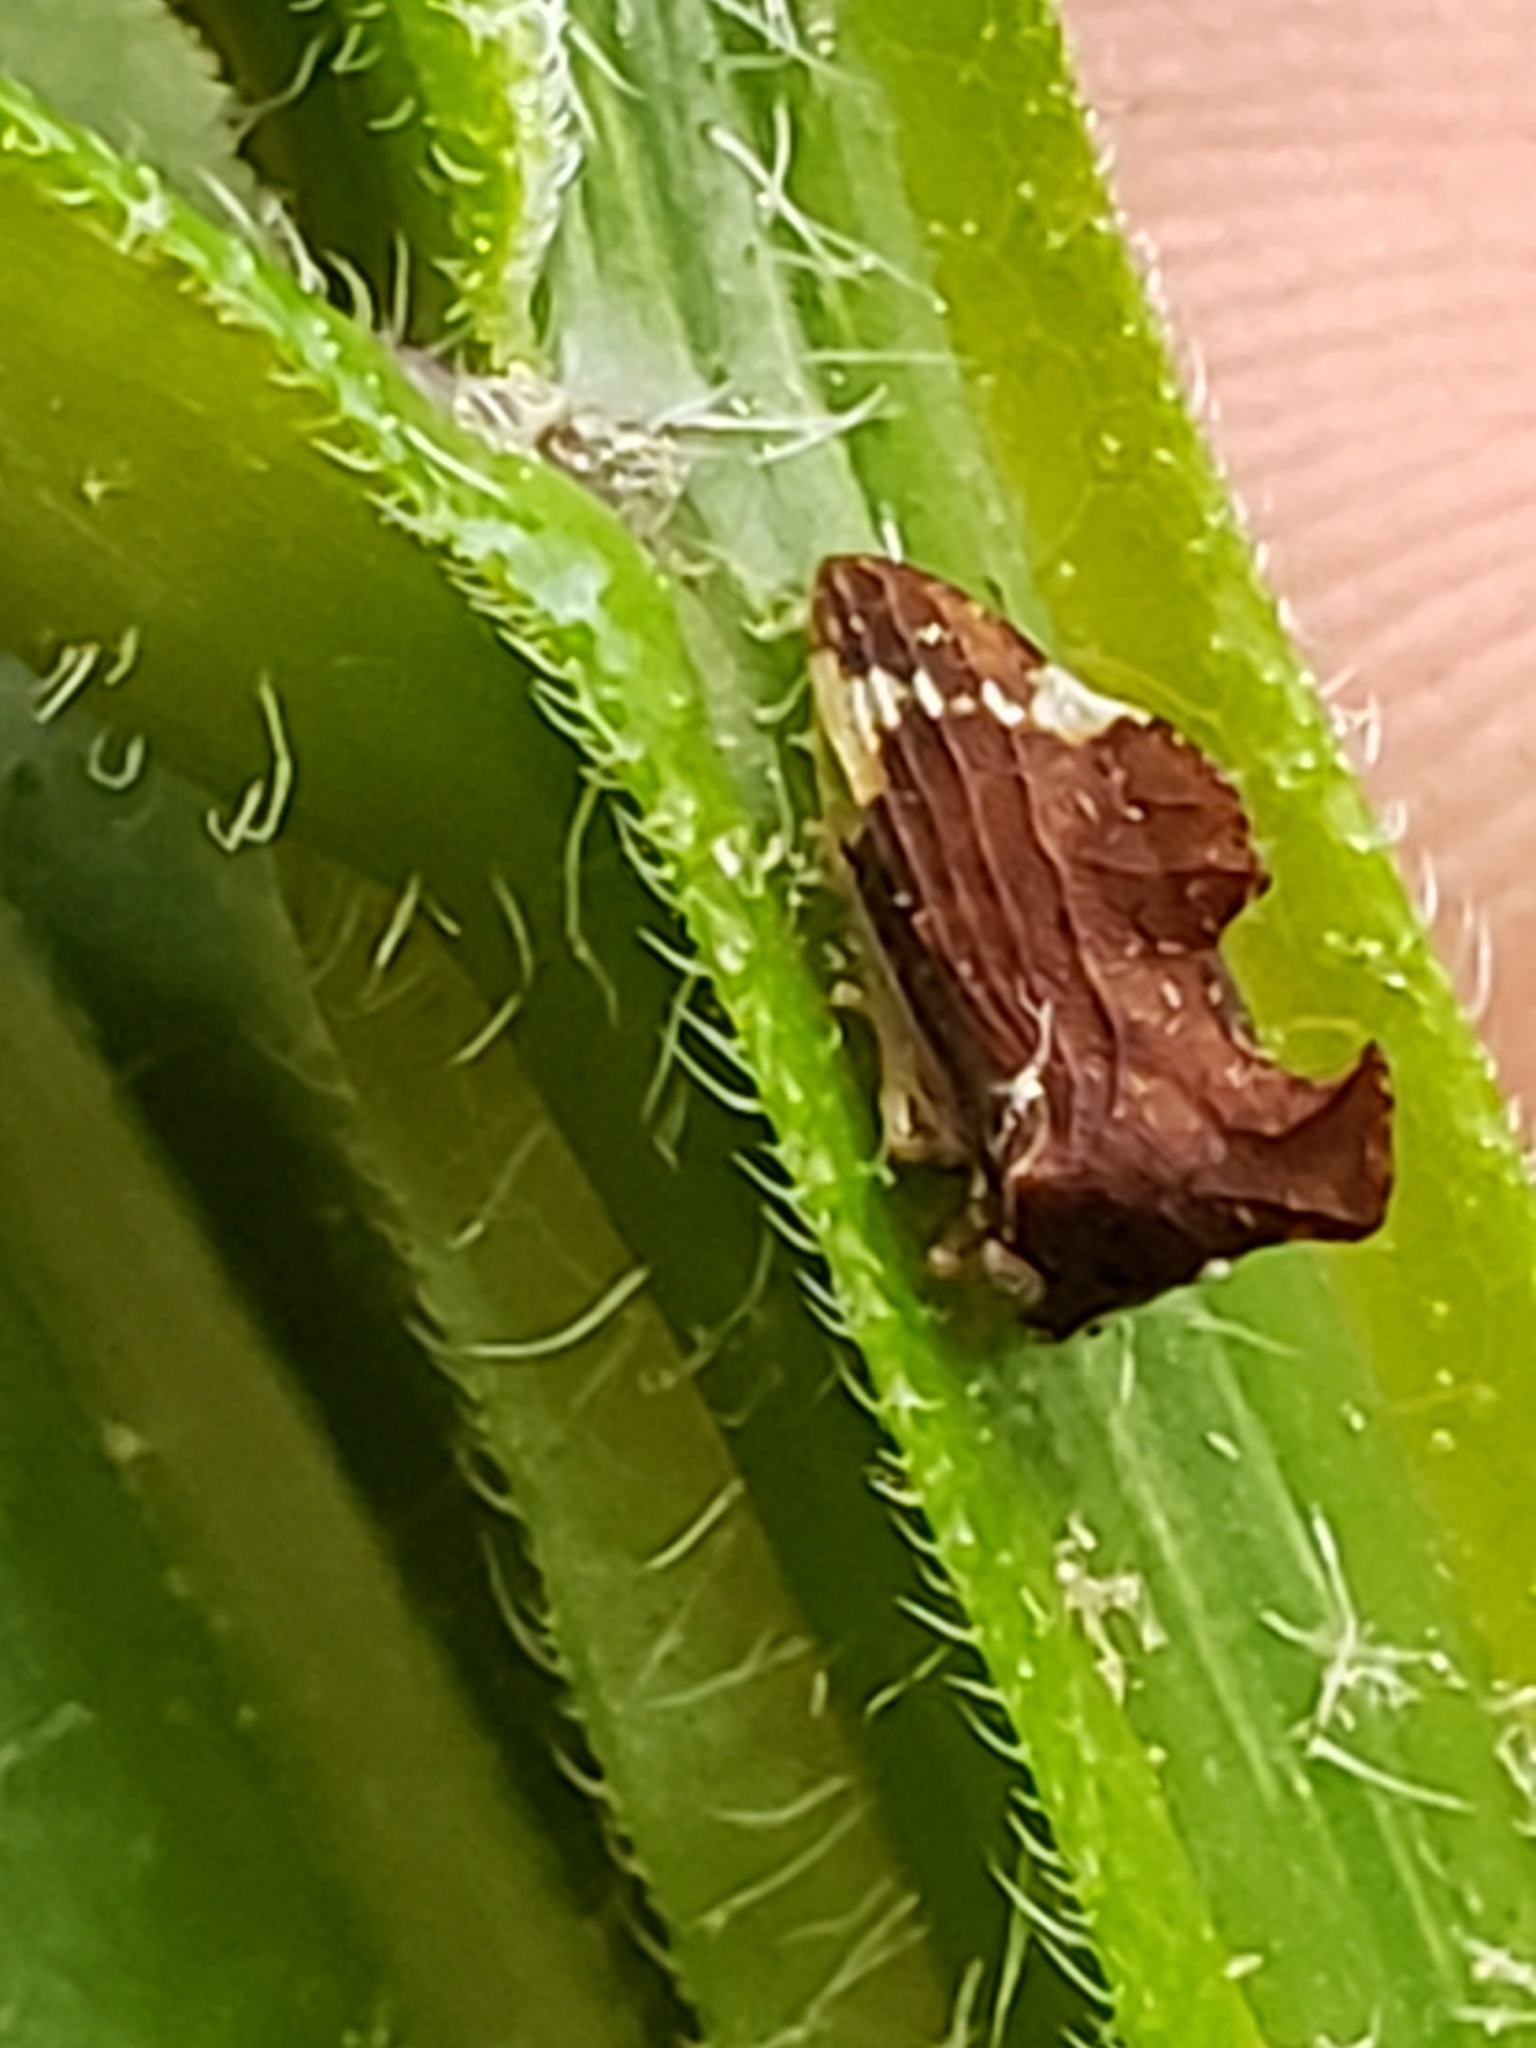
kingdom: Animalia
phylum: Arthropoda
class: Insecta
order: Hemiptera
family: Membracidae
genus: Entylia
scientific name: Entylia carinata
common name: Keeled treehopper
